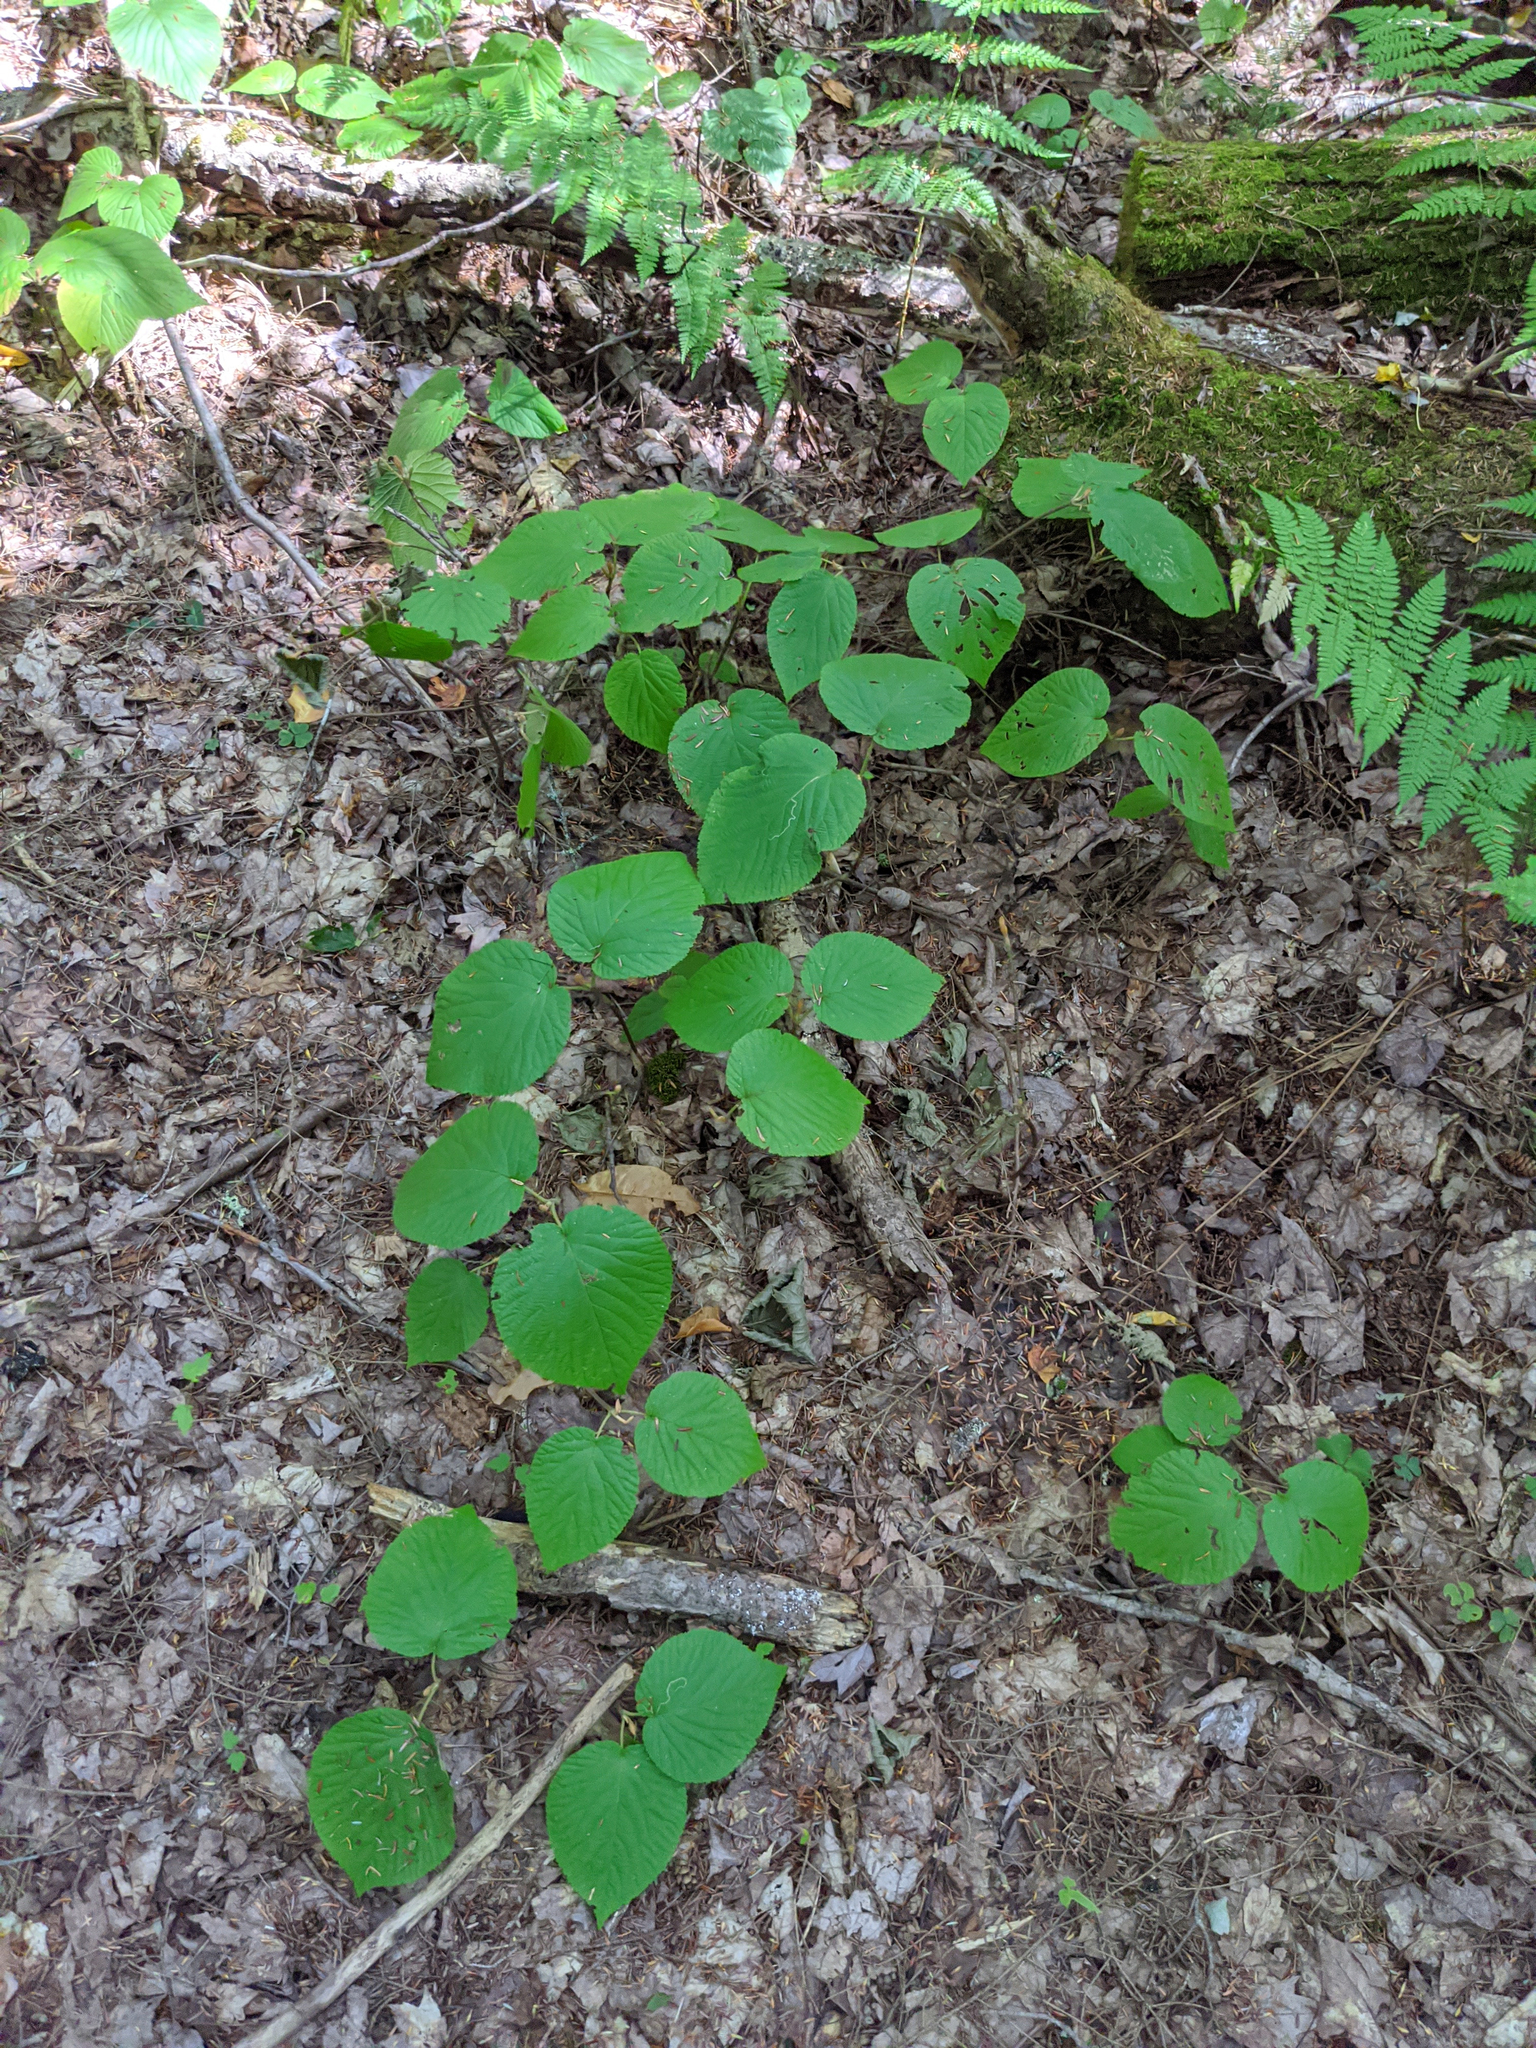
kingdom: Plantae
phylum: Tracheophyta
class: Magnoliopsida
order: Dipsacales
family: Viburnaceae
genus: Viburnum
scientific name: Viburnum lantanoides
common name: Hobblebush
